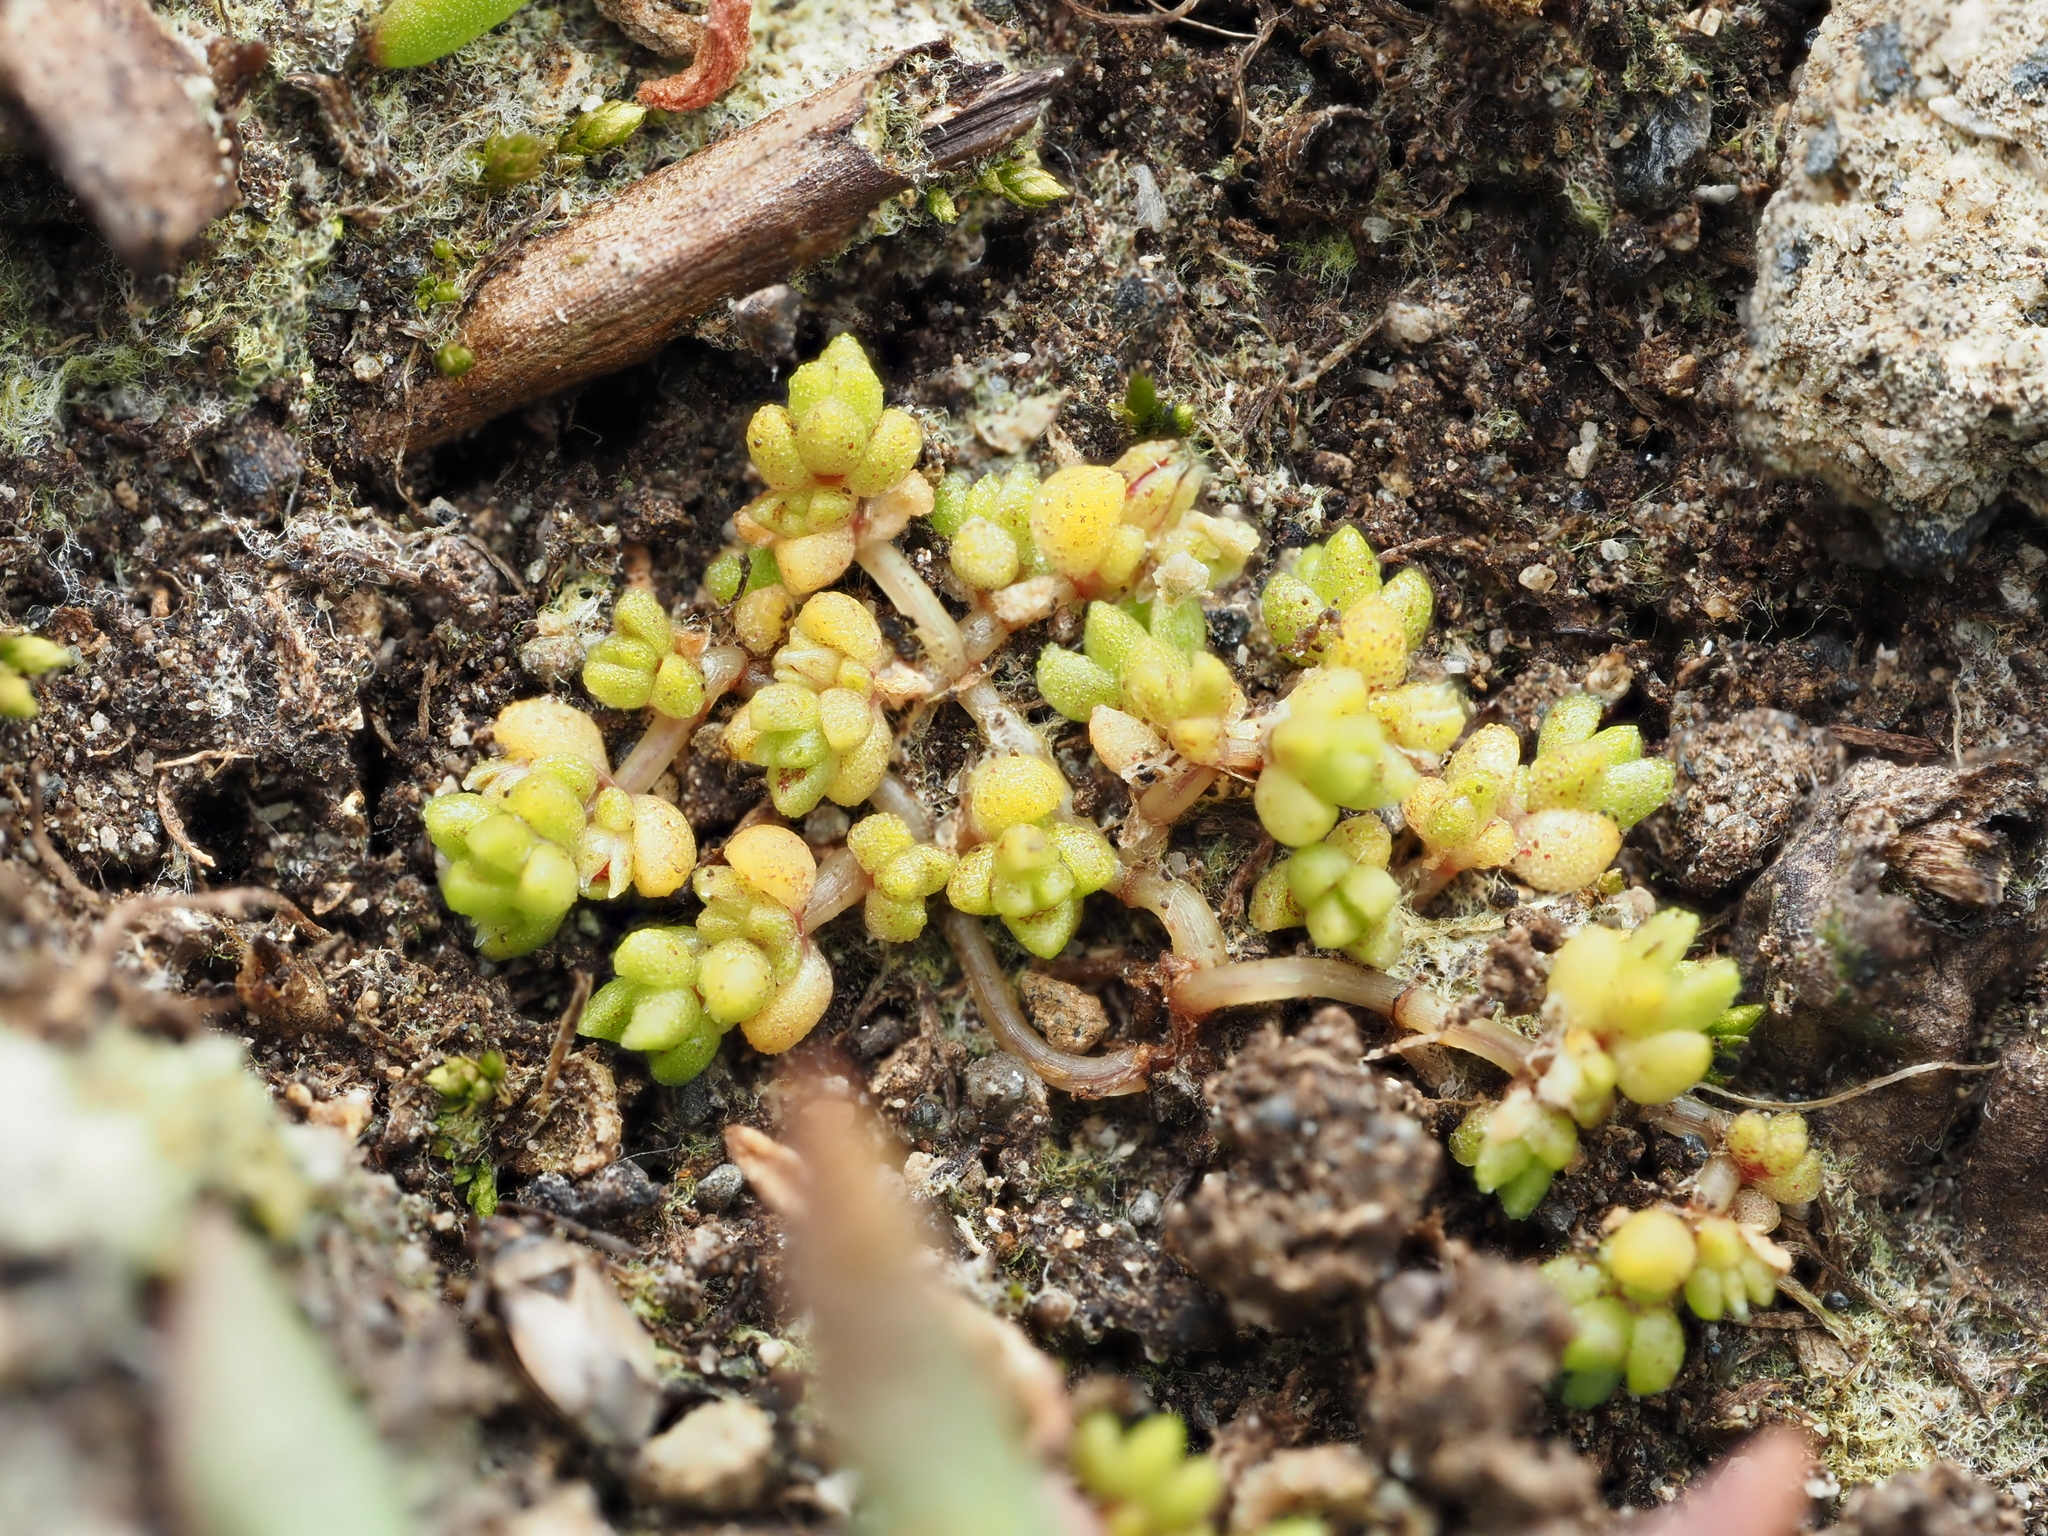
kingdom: Plantae
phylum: Tracheophyta
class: Magnoliopsida
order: Saxifragales
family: Crassulaceae
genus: Crassula
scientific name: Crassula manaia
